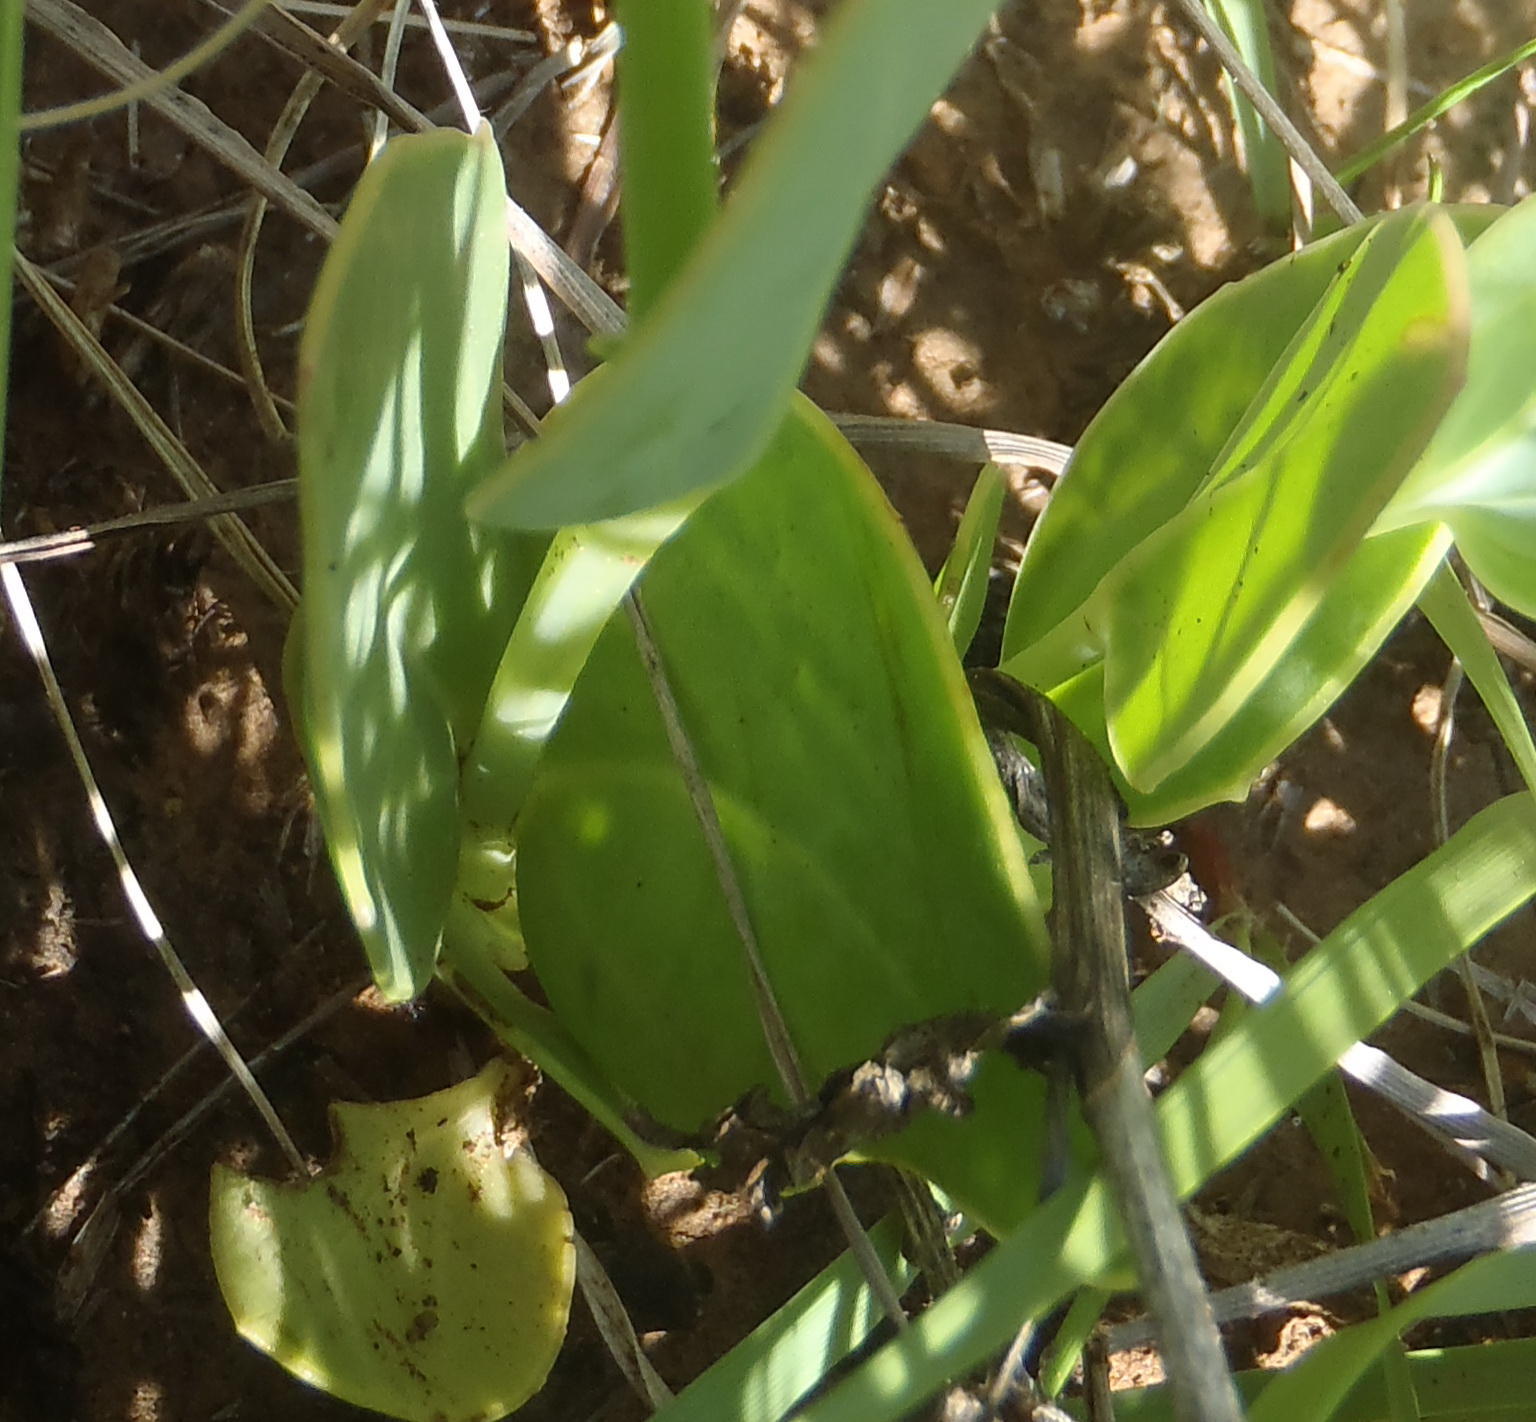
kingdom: Plantae
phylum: Tracheophyta
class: Magnoliopsida
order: Asterales
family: Asteraceae
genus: Senecio
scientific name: Senecio ruwenzoriensis
